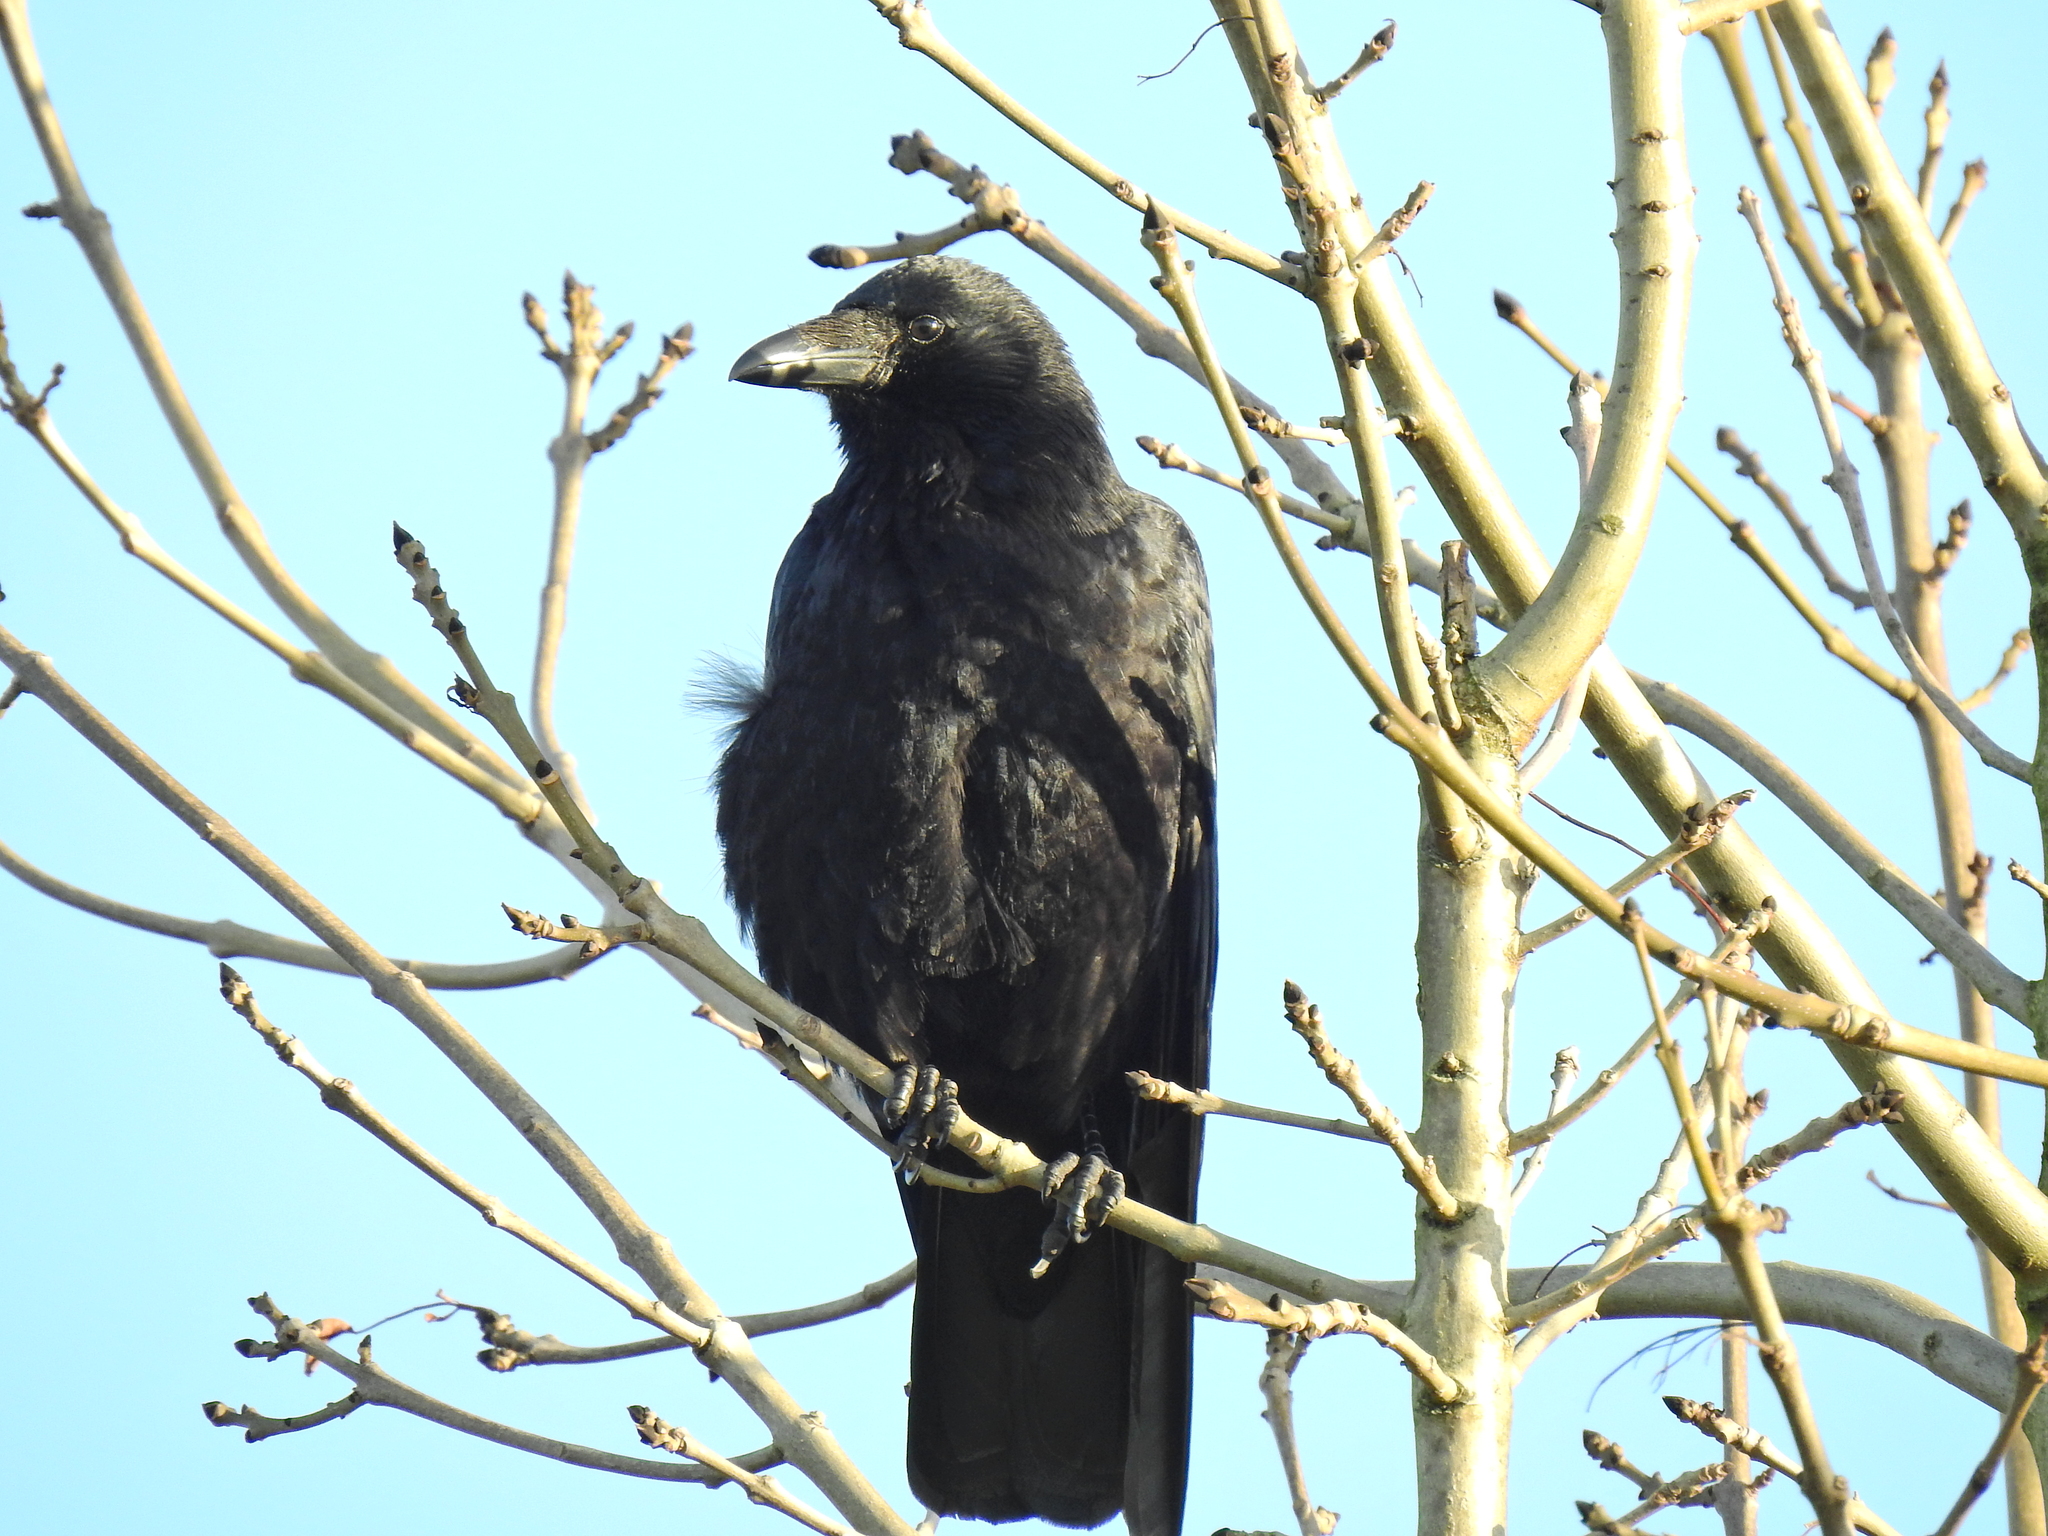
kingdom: Animalia
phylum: Chordata
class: Aves
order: Passeriformes
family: Corvidae
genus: Corvus
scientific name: Corvus corone
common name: Carrion crow
